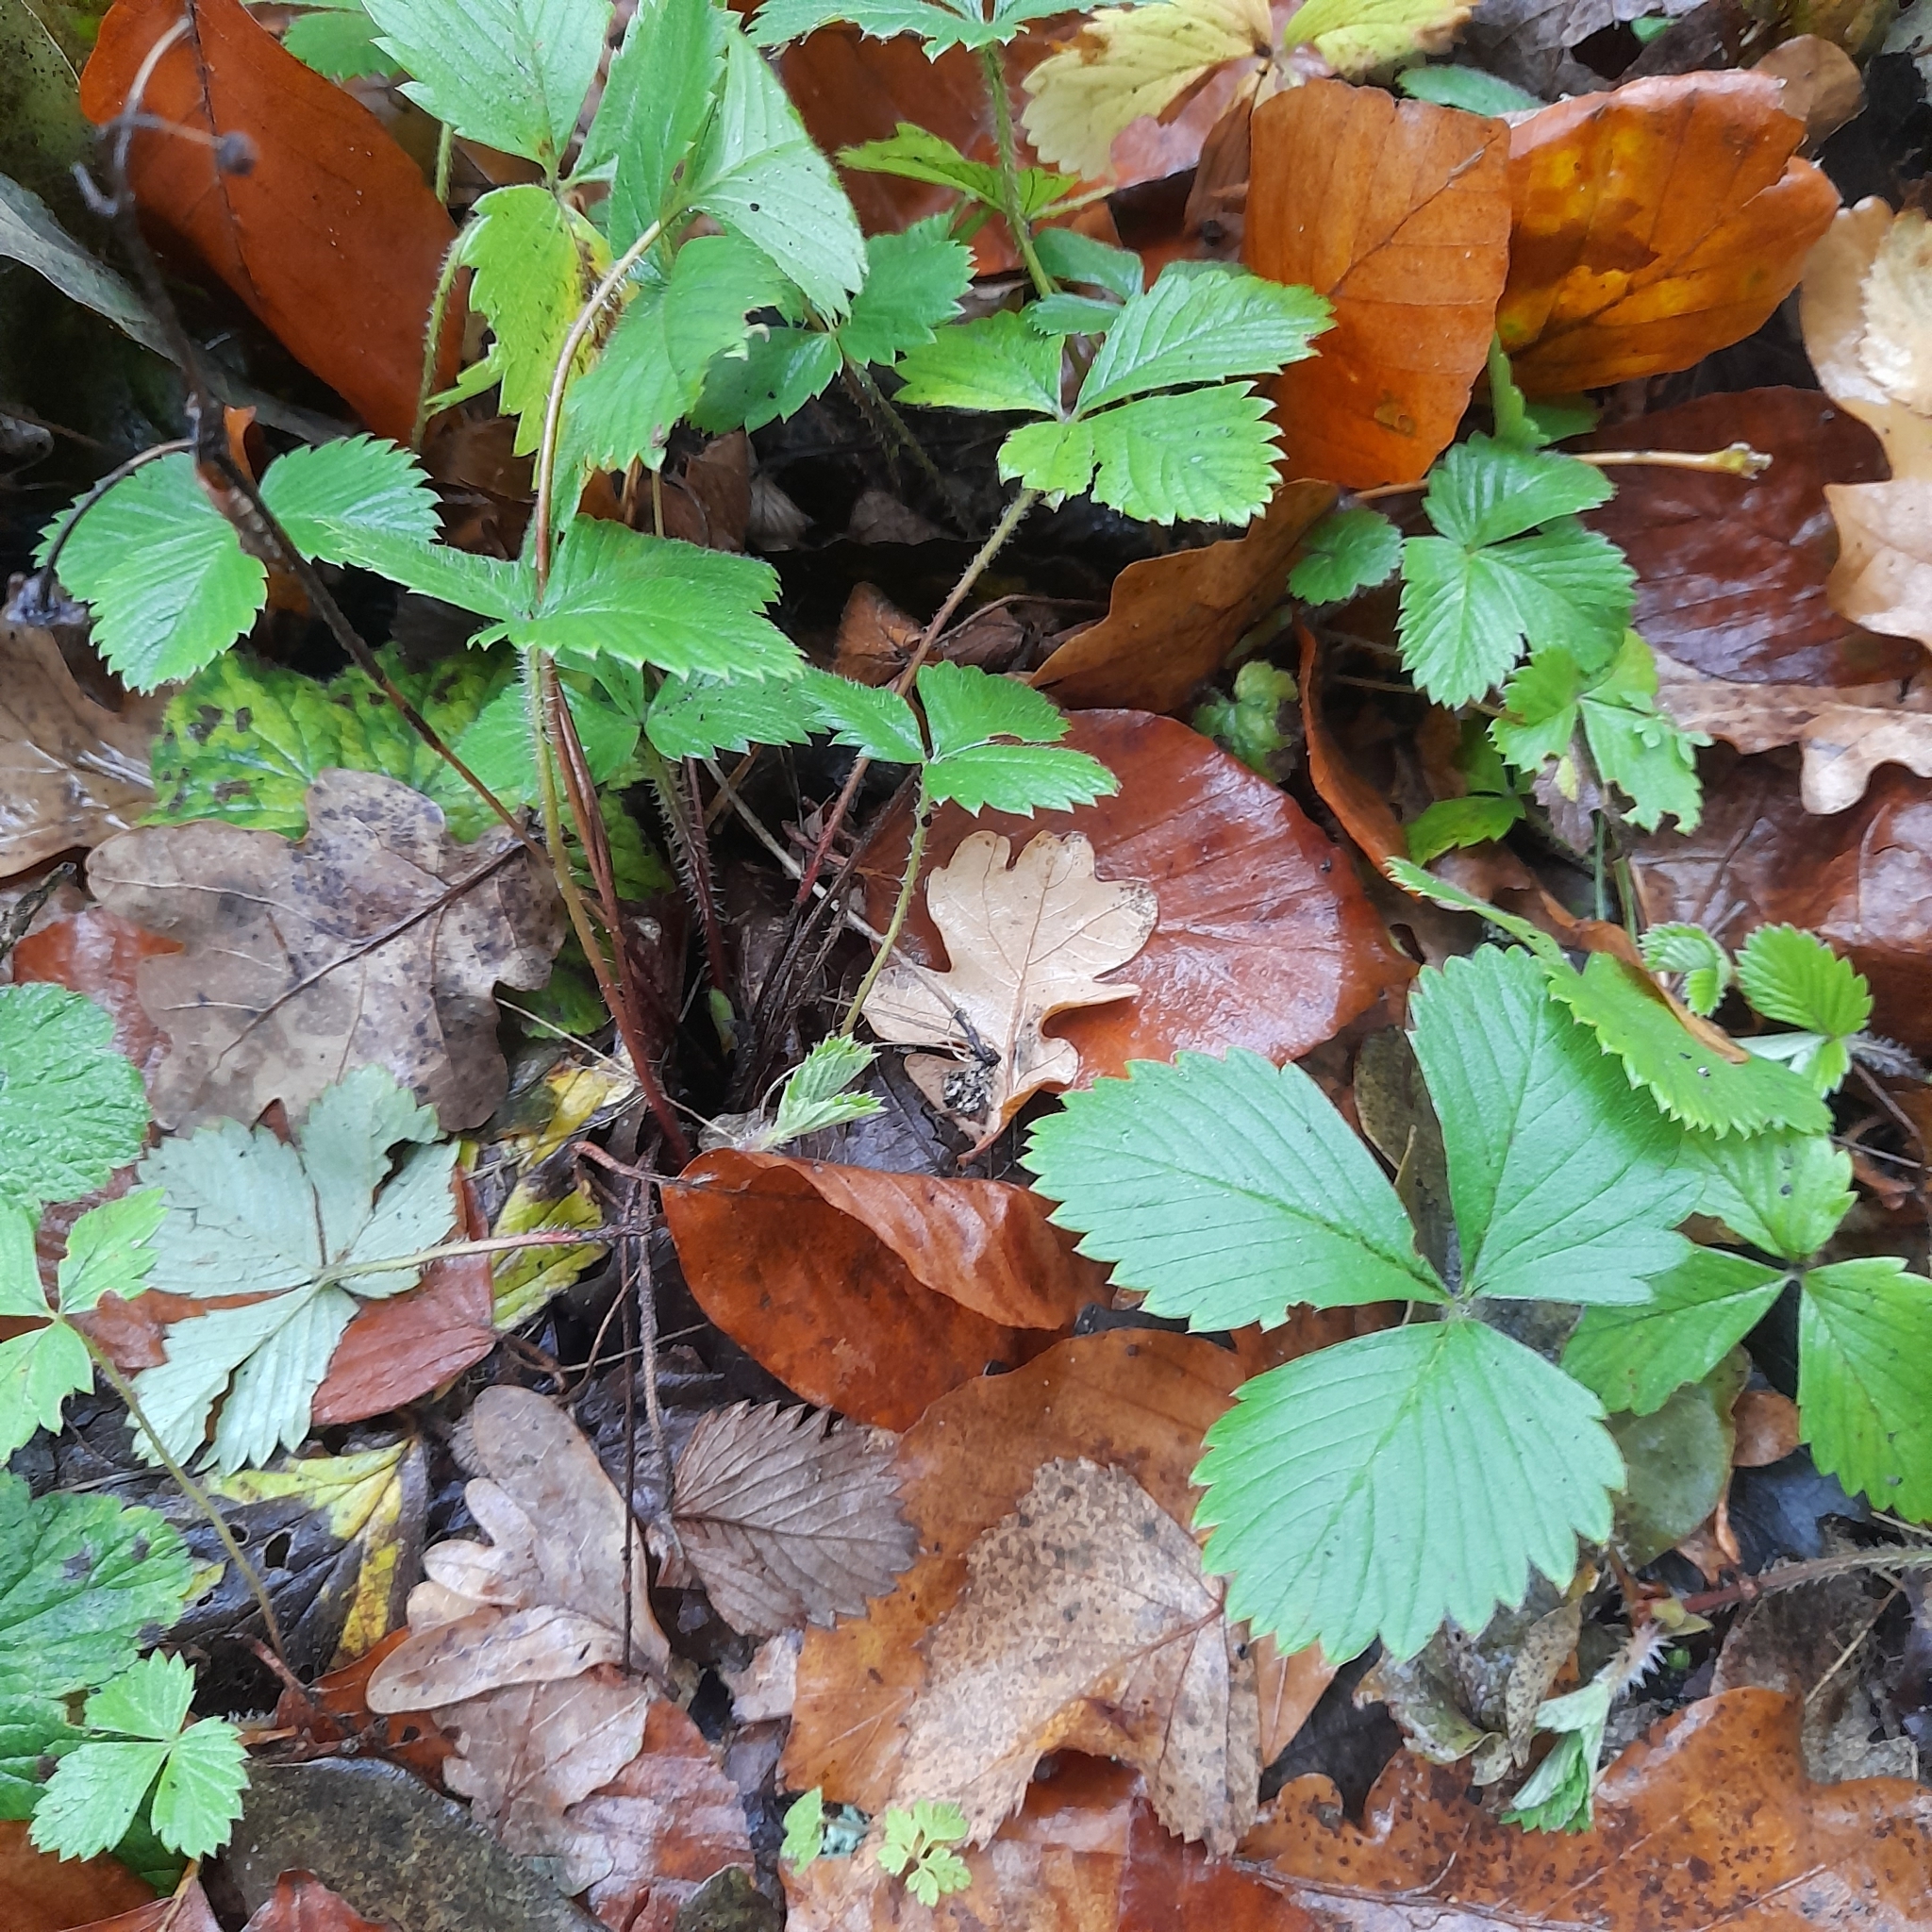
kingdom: Plantae
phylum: Tracheophyta
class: Magnoliopsida
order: Rosales
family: Rosaceae
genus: Fragaria
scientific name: Fragaria vesca
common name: Wild strawberry
